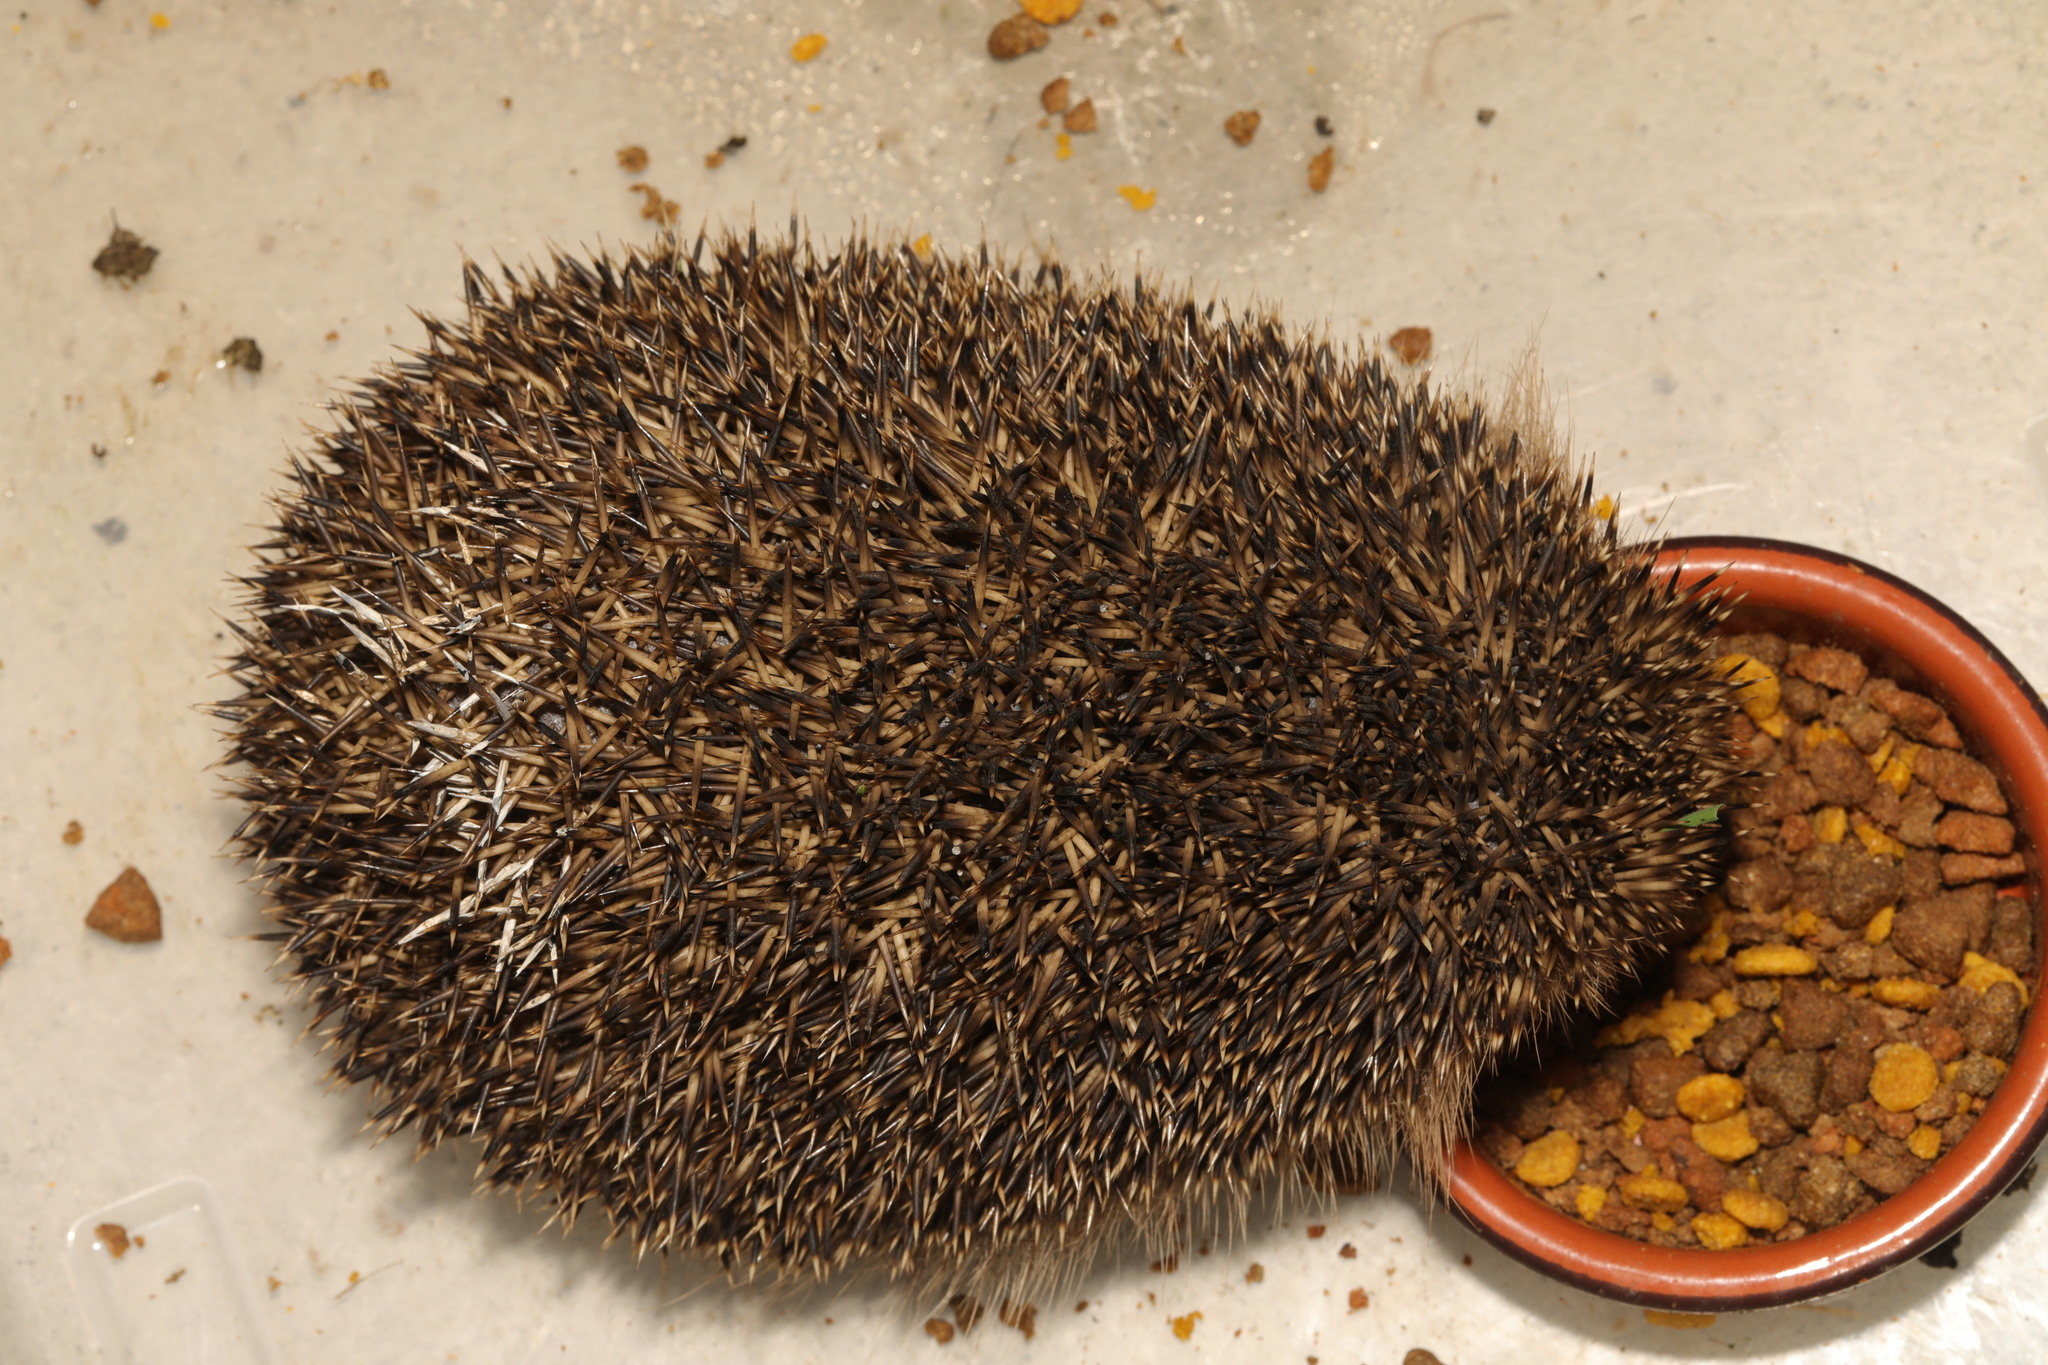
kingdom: Animalia
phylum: Chordata
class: Mammalia
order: Erinaceomorpha
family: Erinaceidae
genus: Erinaceus
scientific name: Erinaceus europaeus
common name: West european hedgehog
